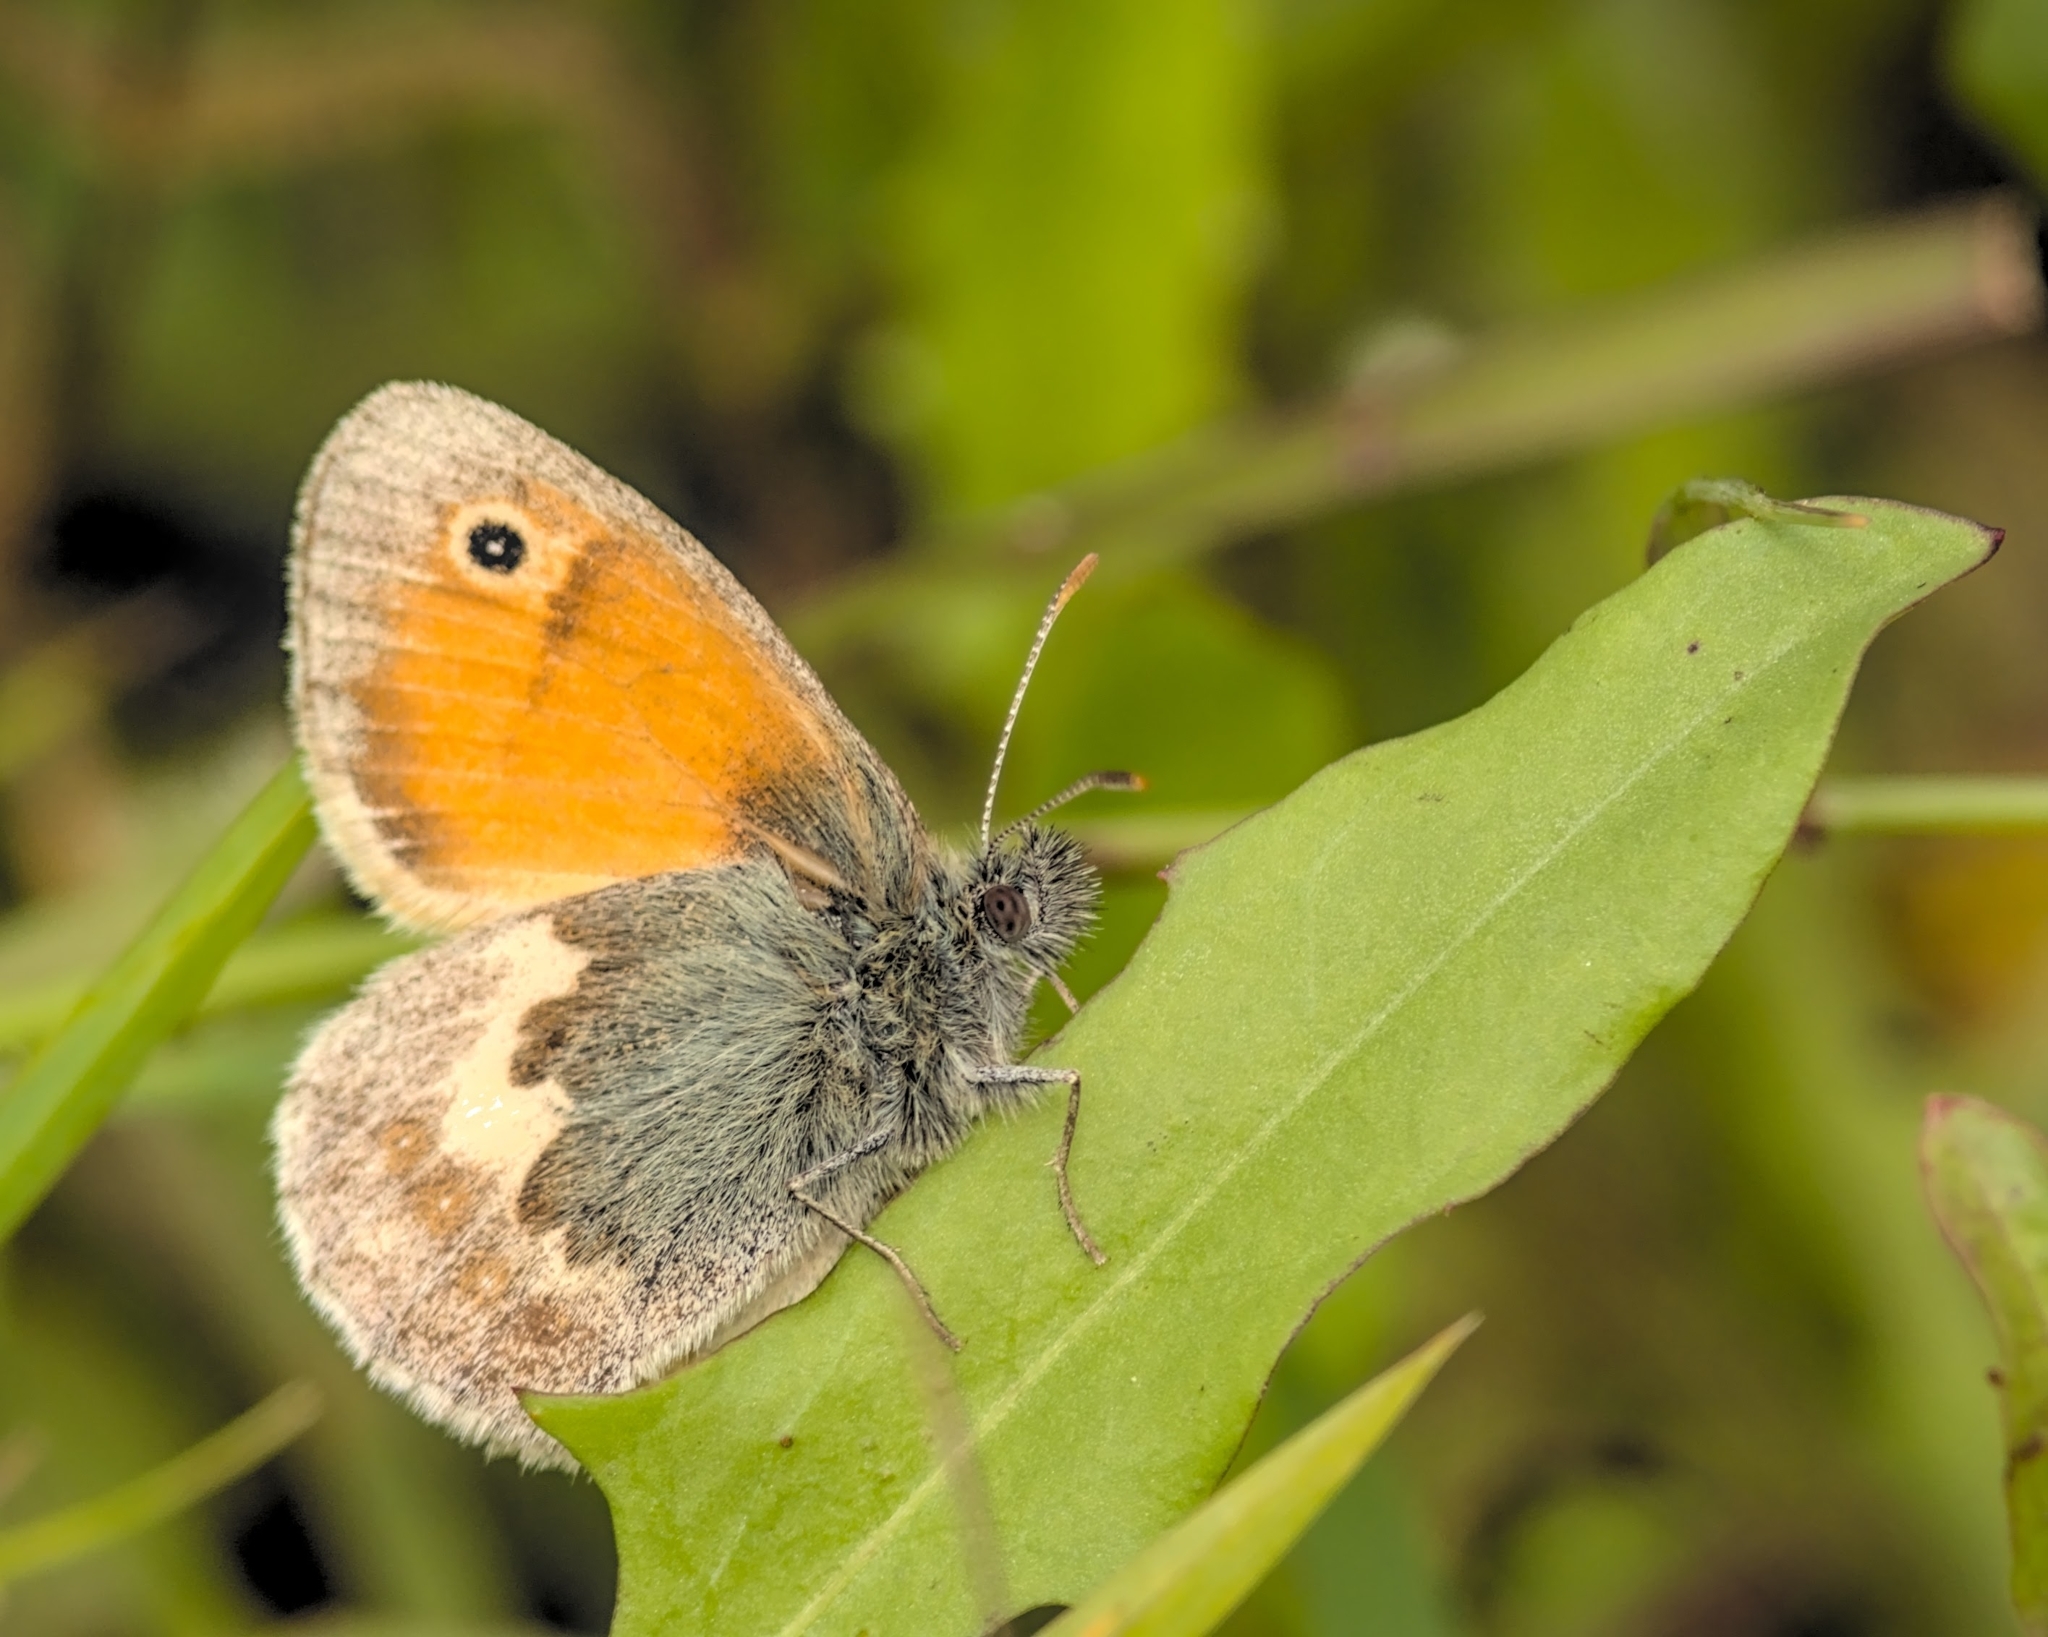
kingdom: Animalia
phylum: Arthropoda
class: Insecta
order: Lepidoptera
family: Nymphalidae
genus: Coenonympha
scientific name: Coenonympha pamphilus
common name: Small heath
